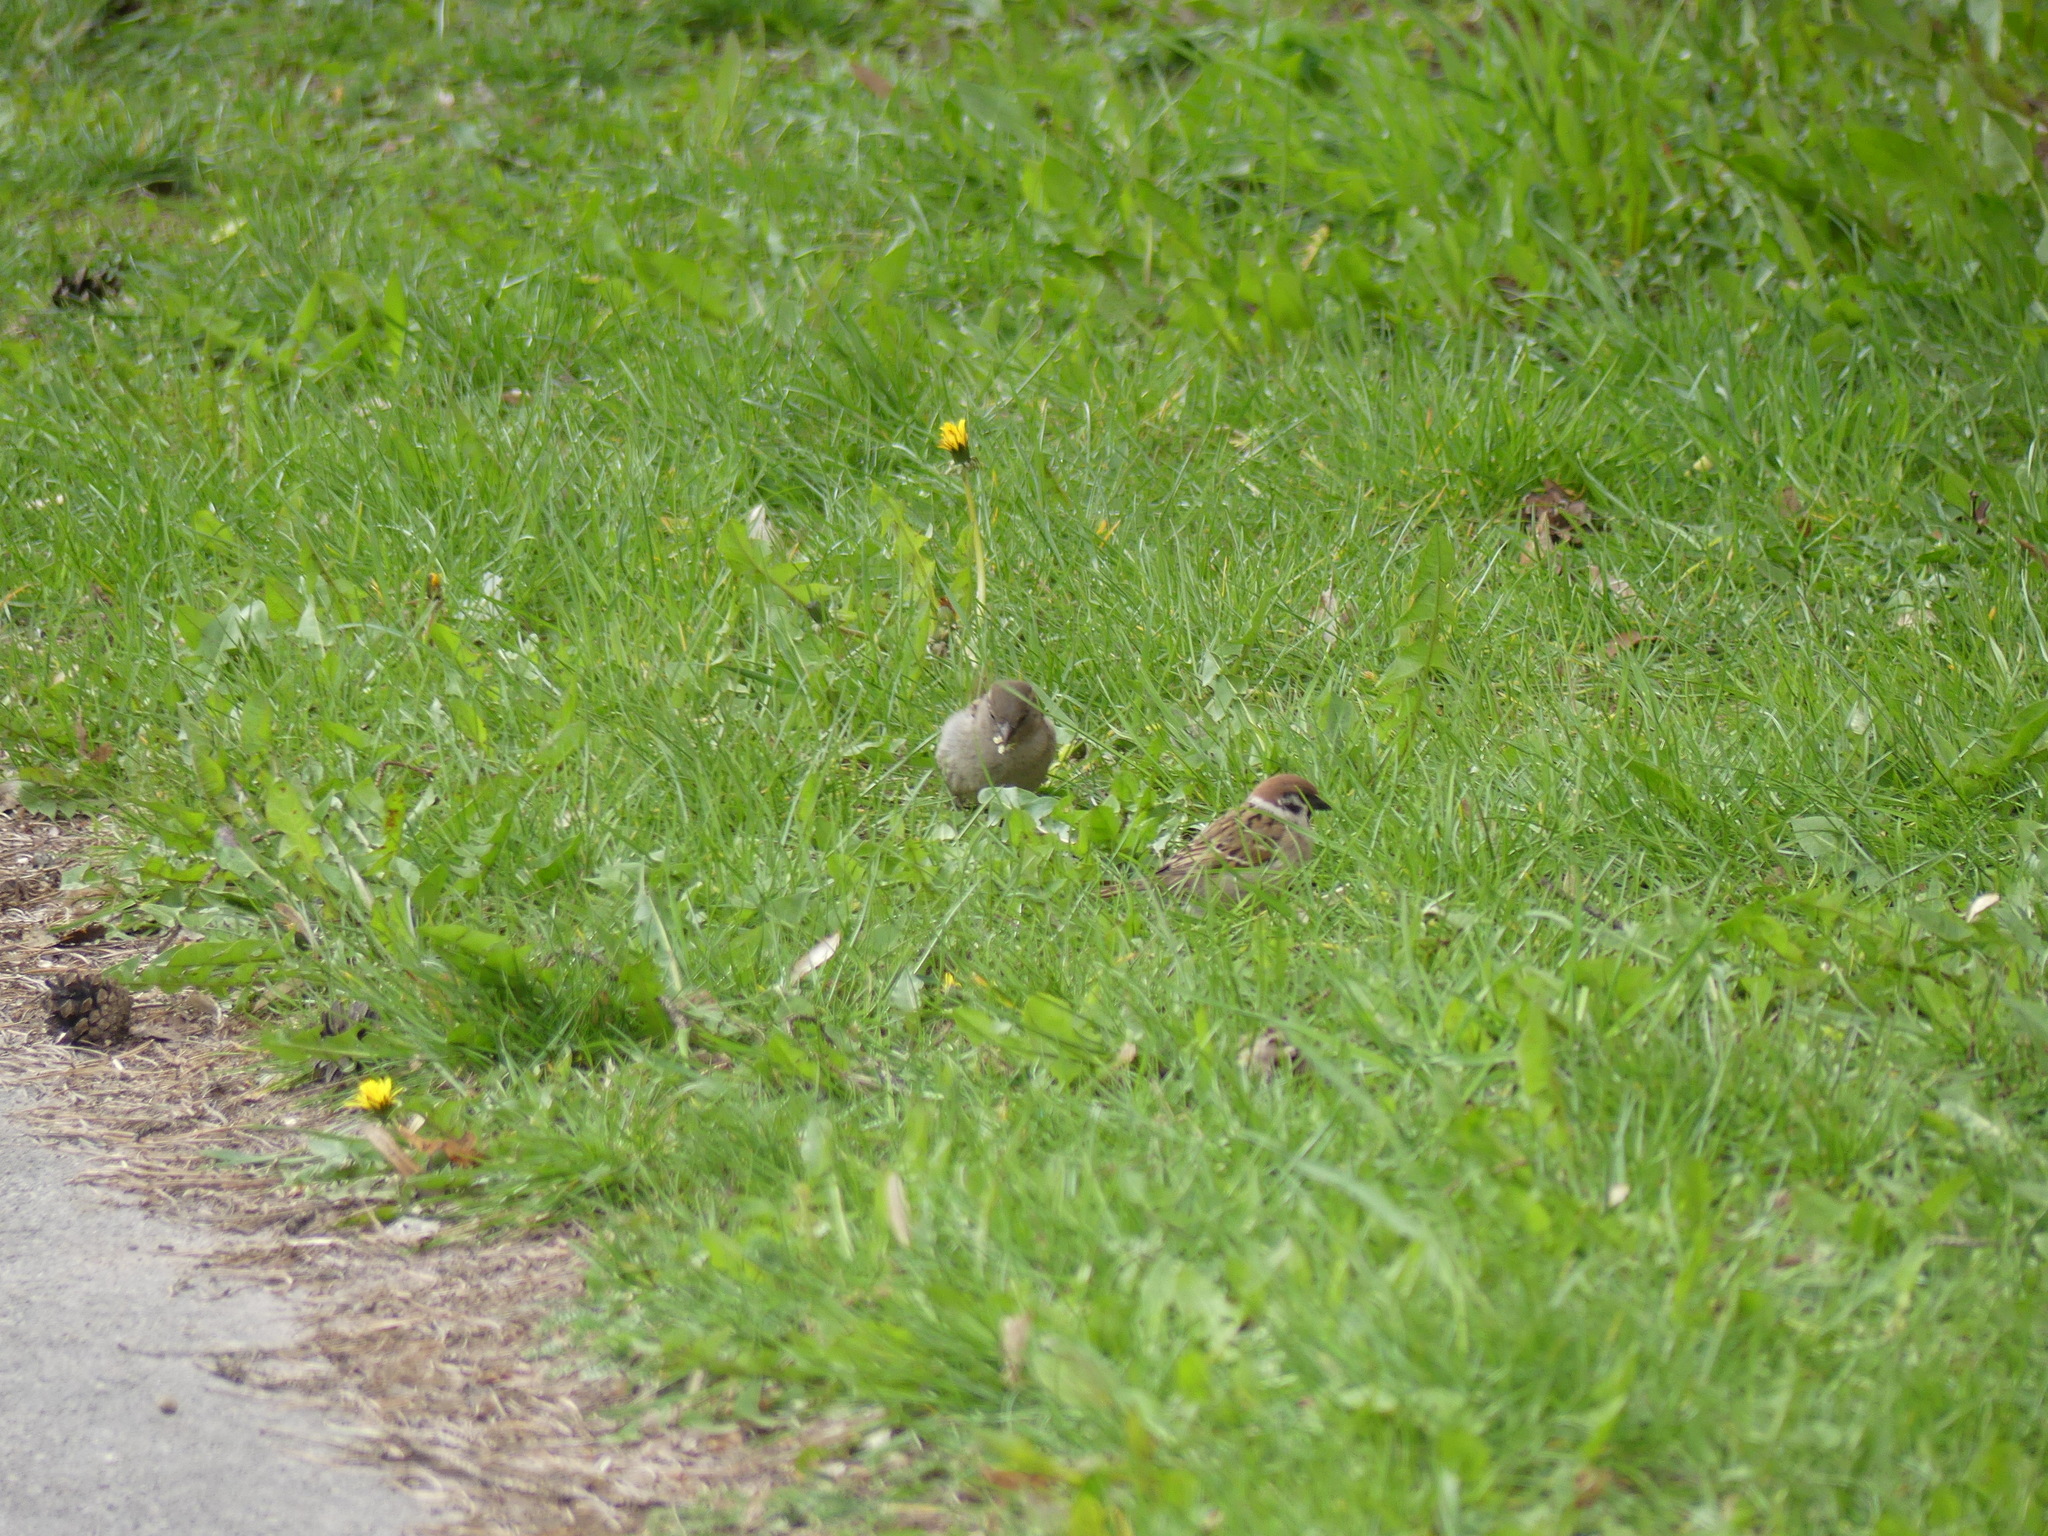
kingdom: Animalia
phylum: Chordata
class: Aves
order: Passeriformes
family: Passeridae
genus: Passer
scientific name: Passer montanus
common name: Eurasian tree sparrow
